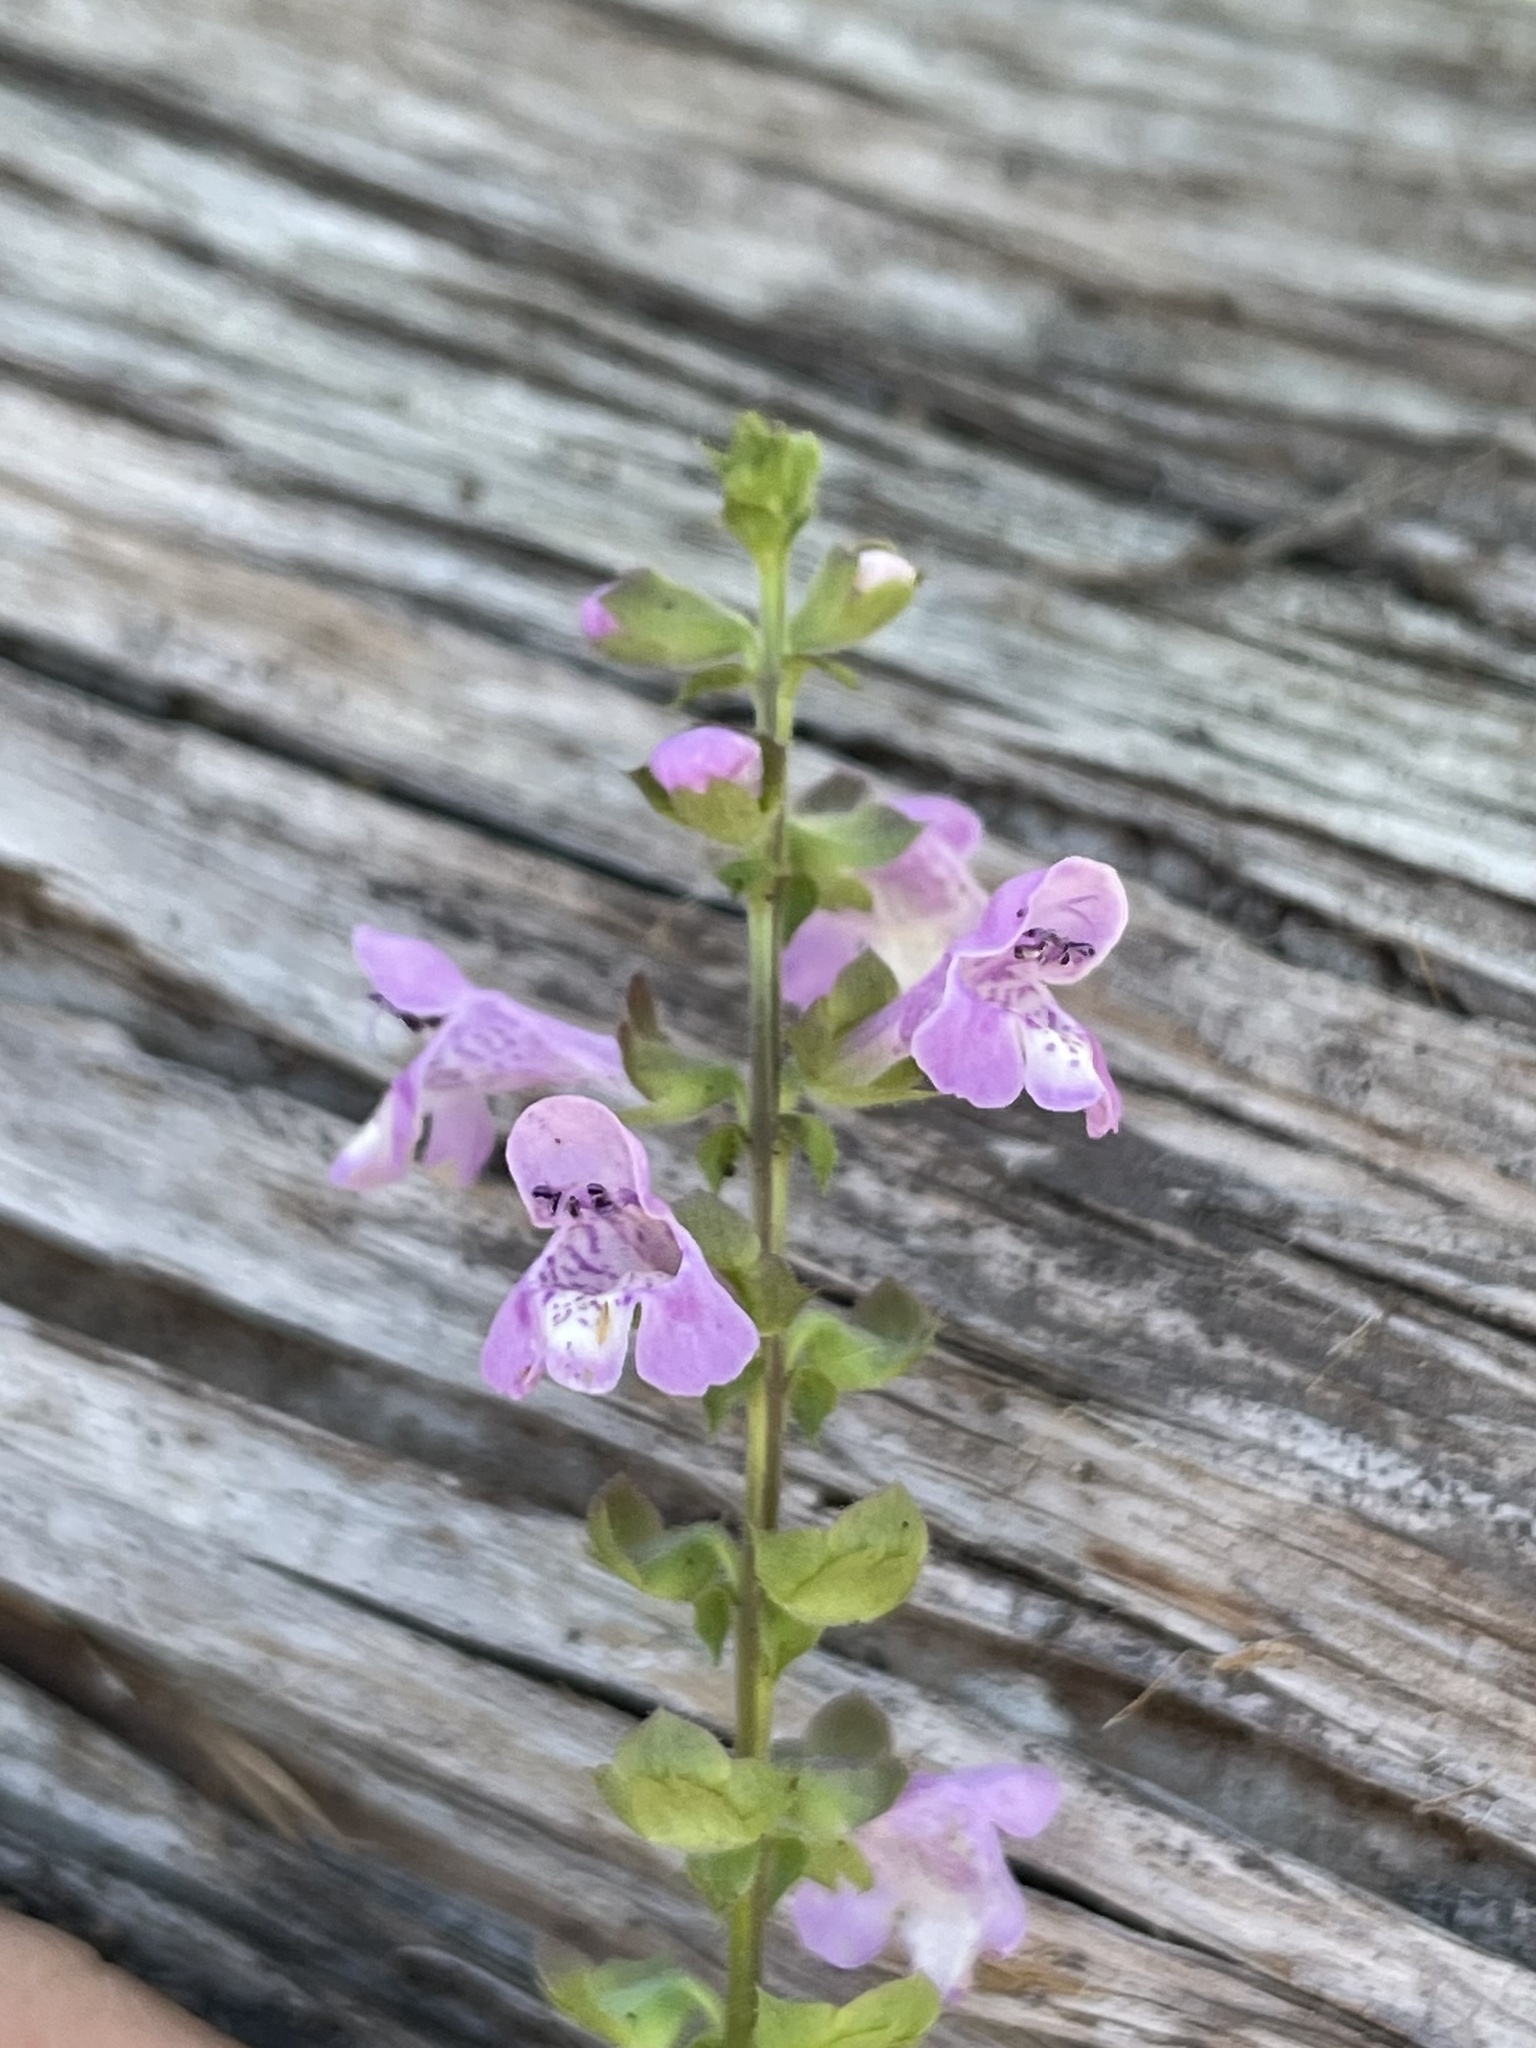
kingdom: Plantae
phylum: Tracheophyta
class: Magnoliopsida
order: Lamiales
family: Lamiaceae
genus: Warnockia
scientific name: Warnockia scutellarioides
